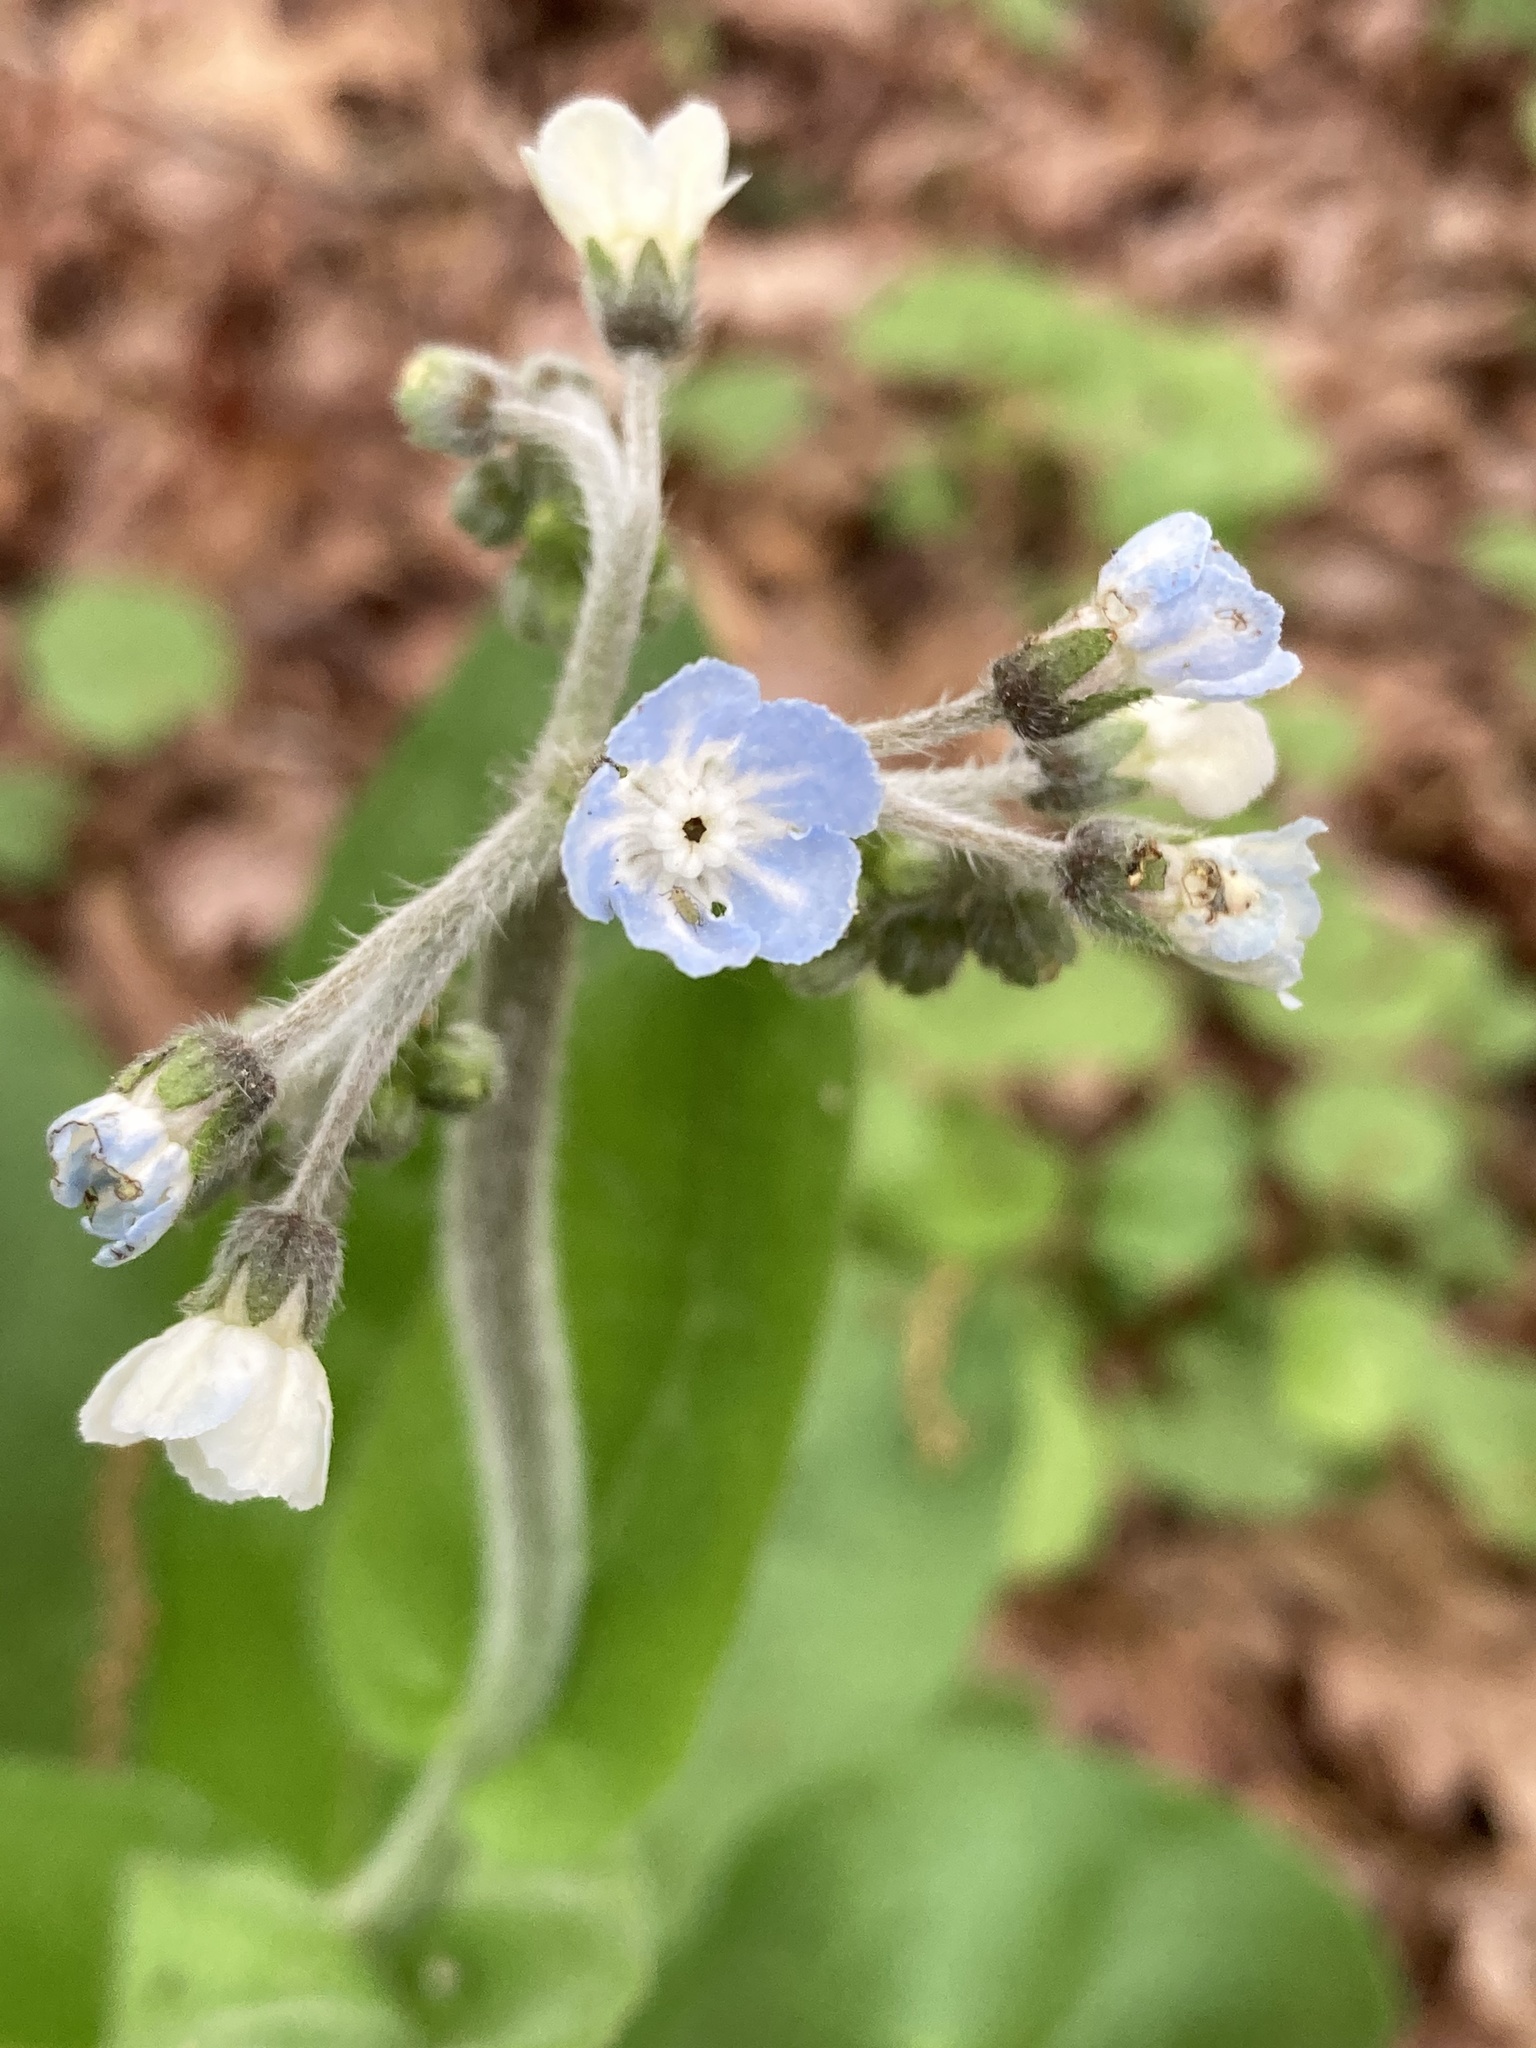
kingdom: Plantae
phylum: Tracheophyta
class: Magnoliopsida
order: Boraginales
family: Boraginaceae
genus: Andersonglossum
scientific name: Andersonglossum virginianum
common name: Wild comfrey
